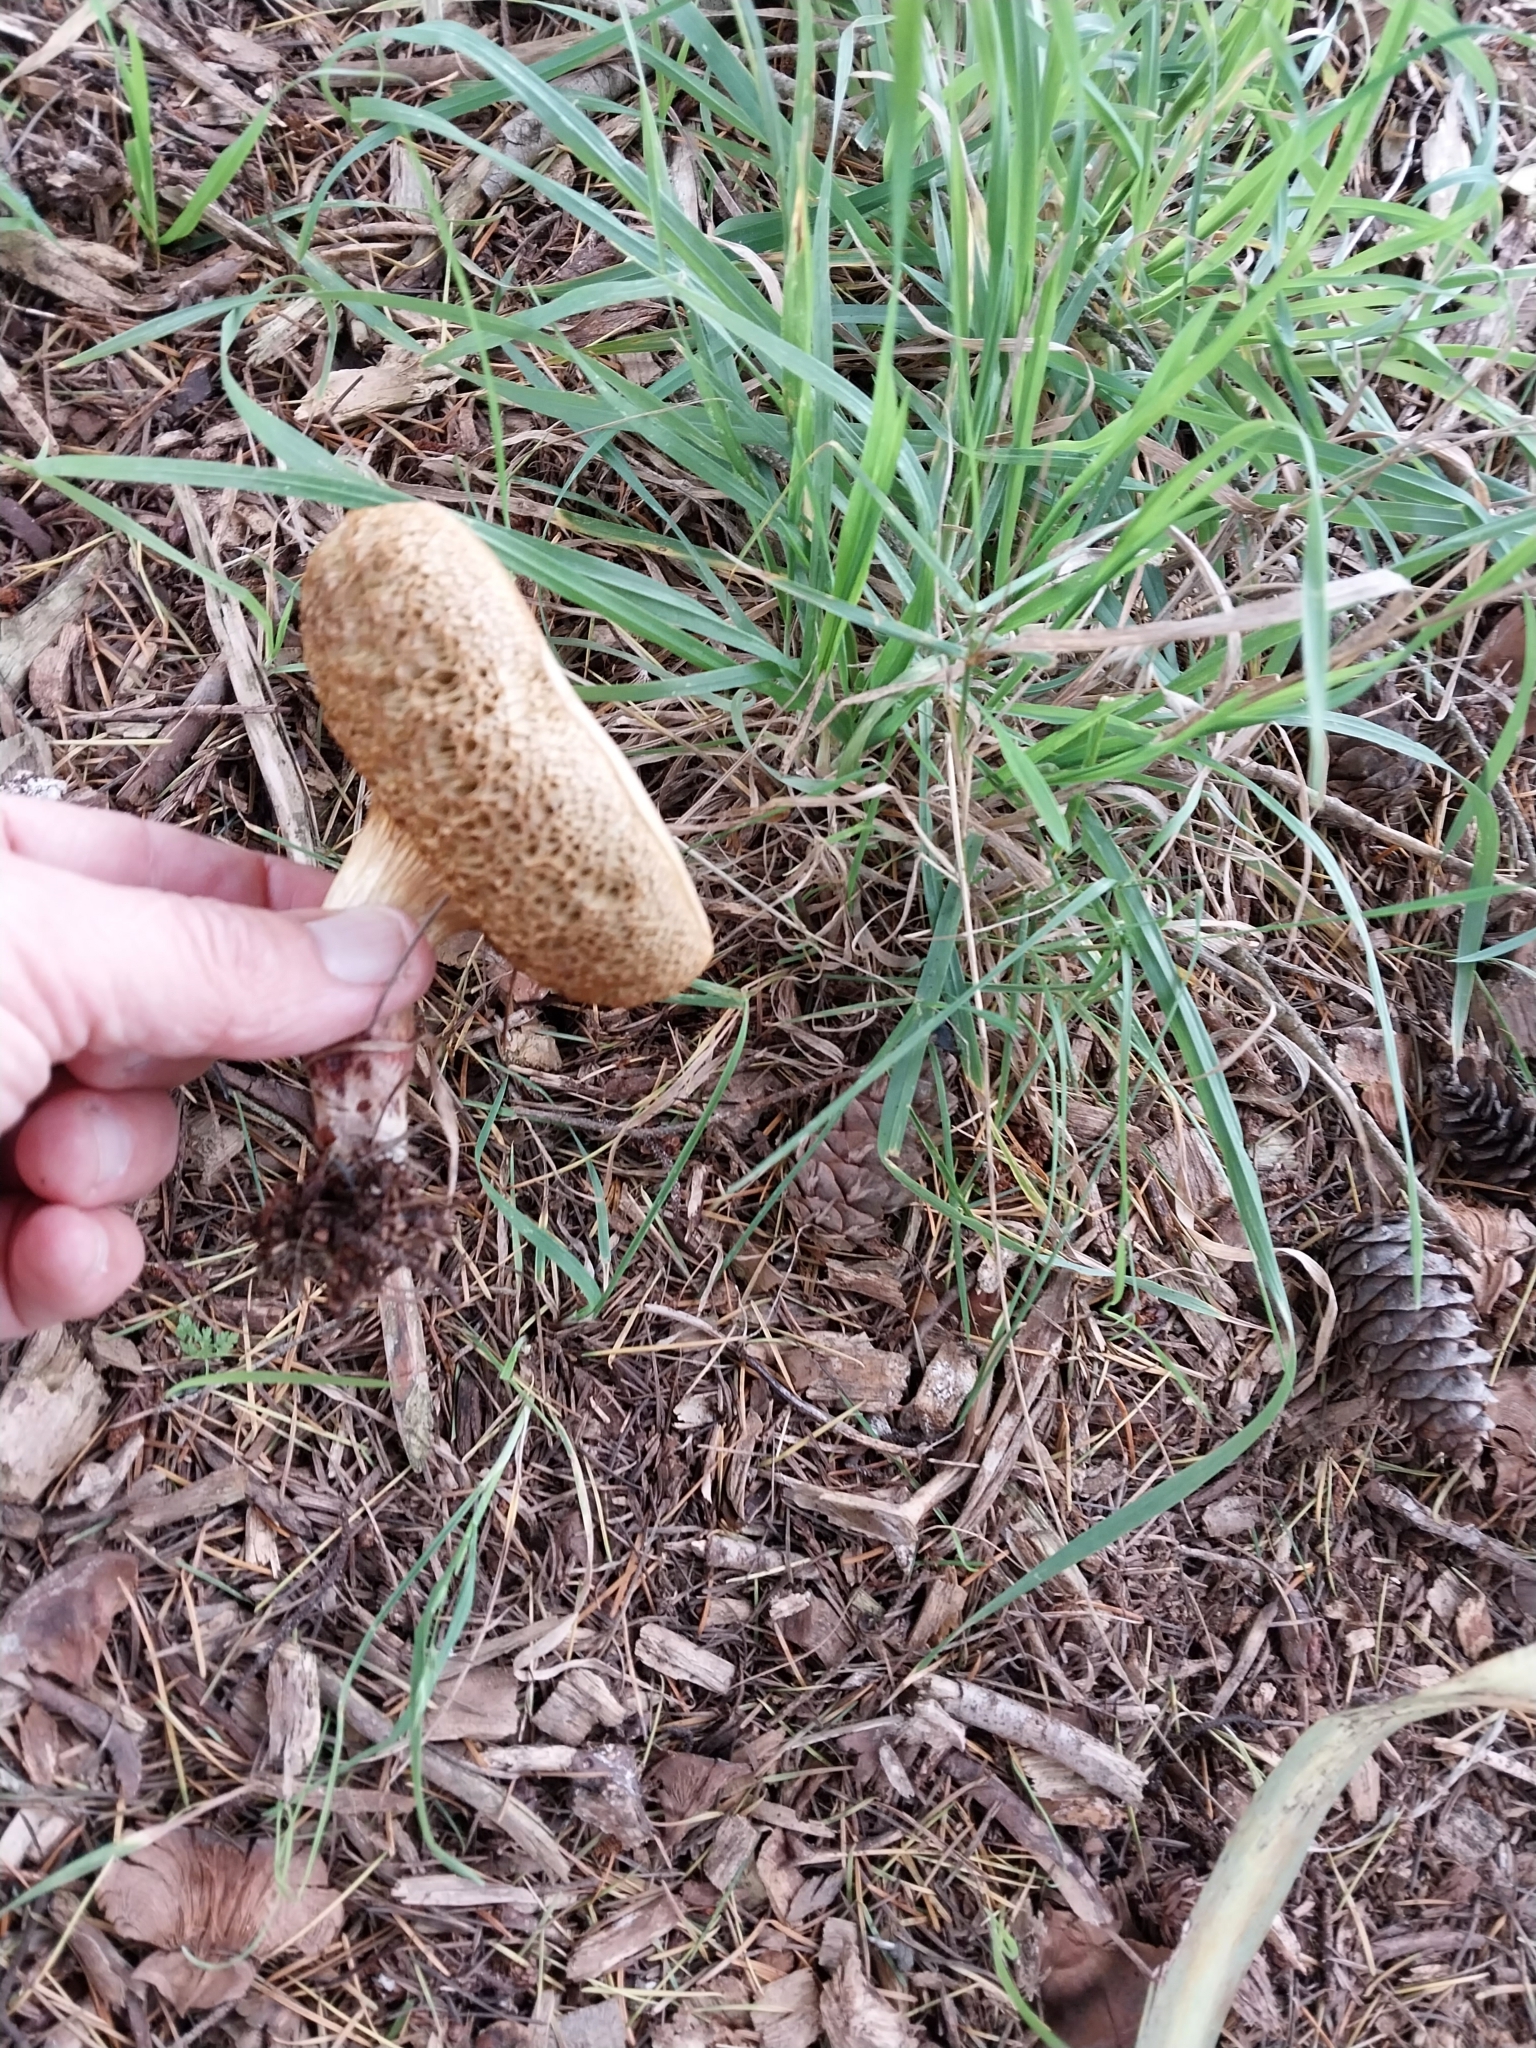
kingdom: Fungi
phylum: Basidiomycota
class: Agaricomycetes
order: Boletales
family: Boletaceae
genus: Xerocomellus
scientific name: Xerocomellus cisalpinus
